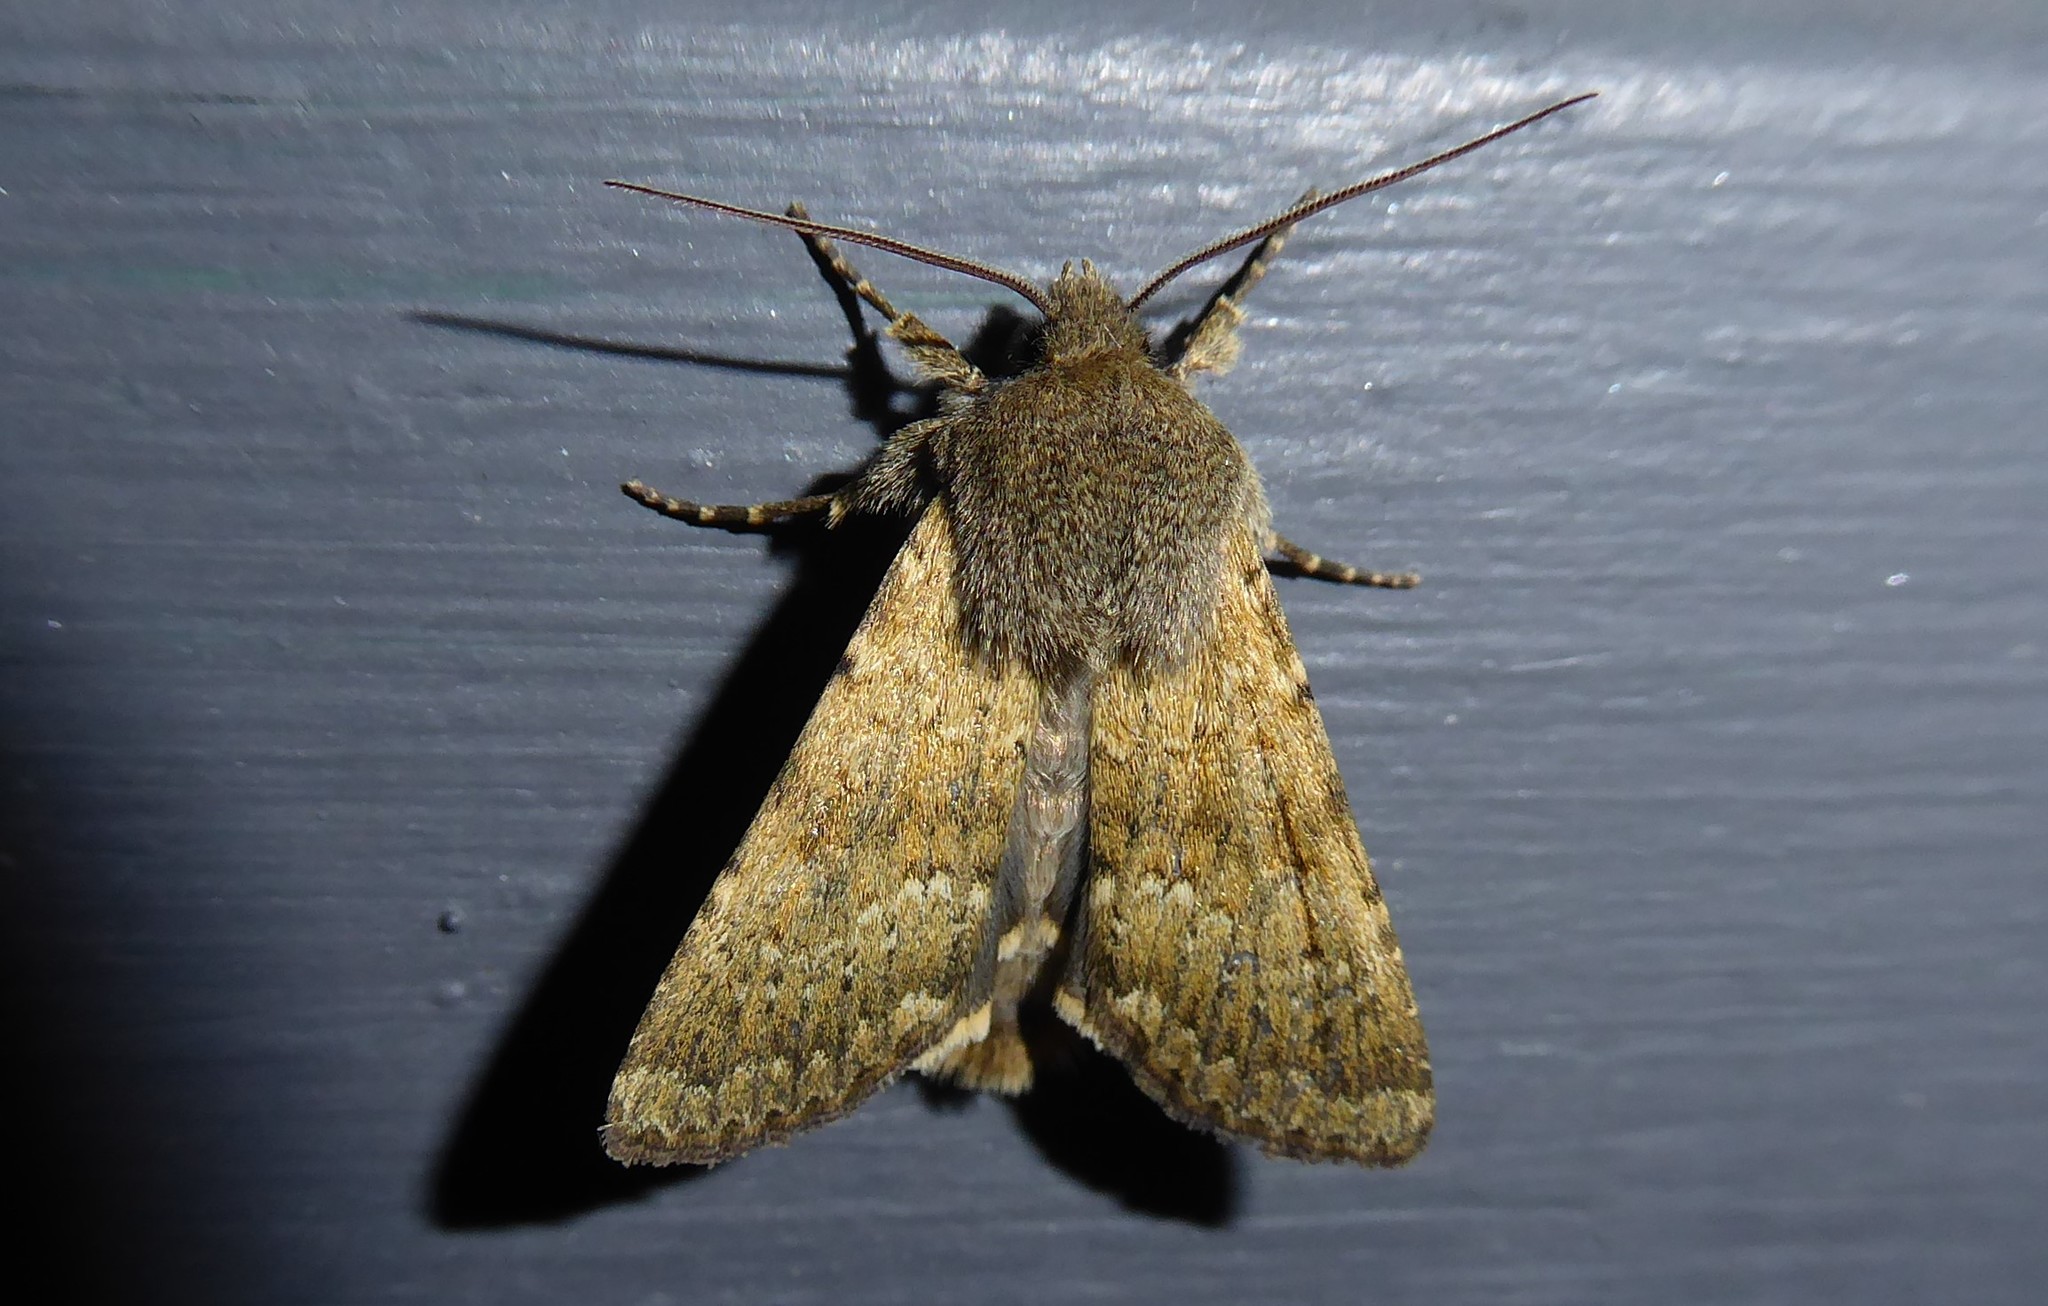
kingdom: Animalia
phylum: Arthropoda
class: Insecta
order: Lepidoptera
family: Noctuidae
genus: Ichneutica
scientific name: Ichneutica moderata
